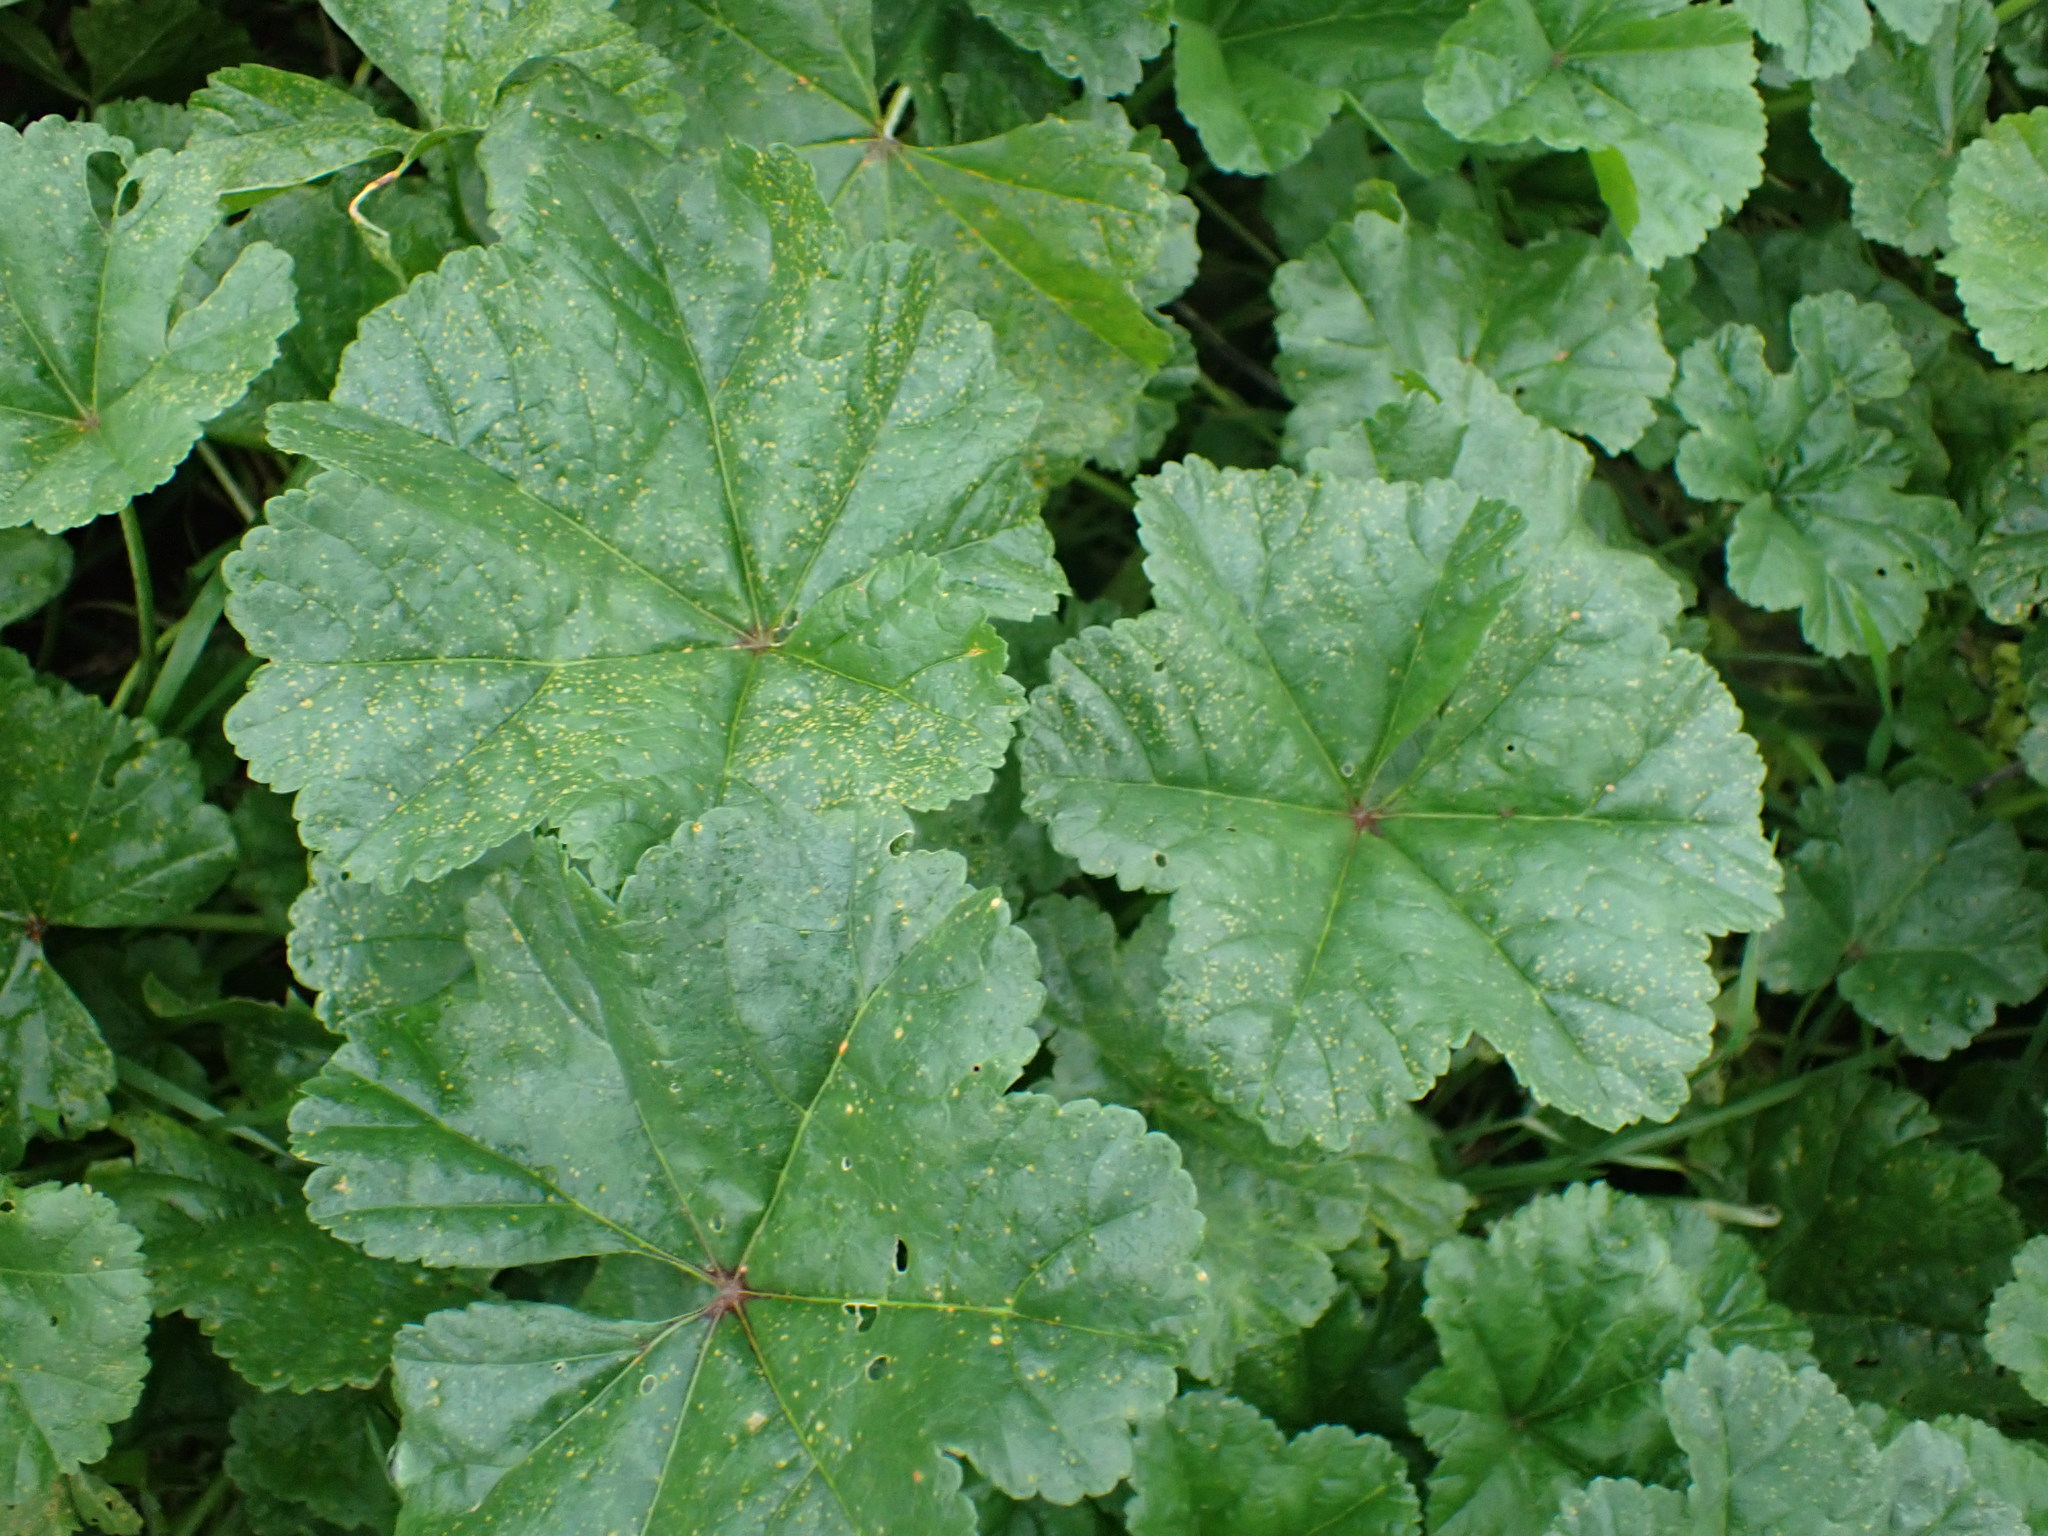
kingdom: Plantae
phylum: Tracheophyta
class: Magnoliopsida
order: Malvales
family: Malvaceae
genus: Malva
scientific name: Malva sylvestris
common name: Common mallow
